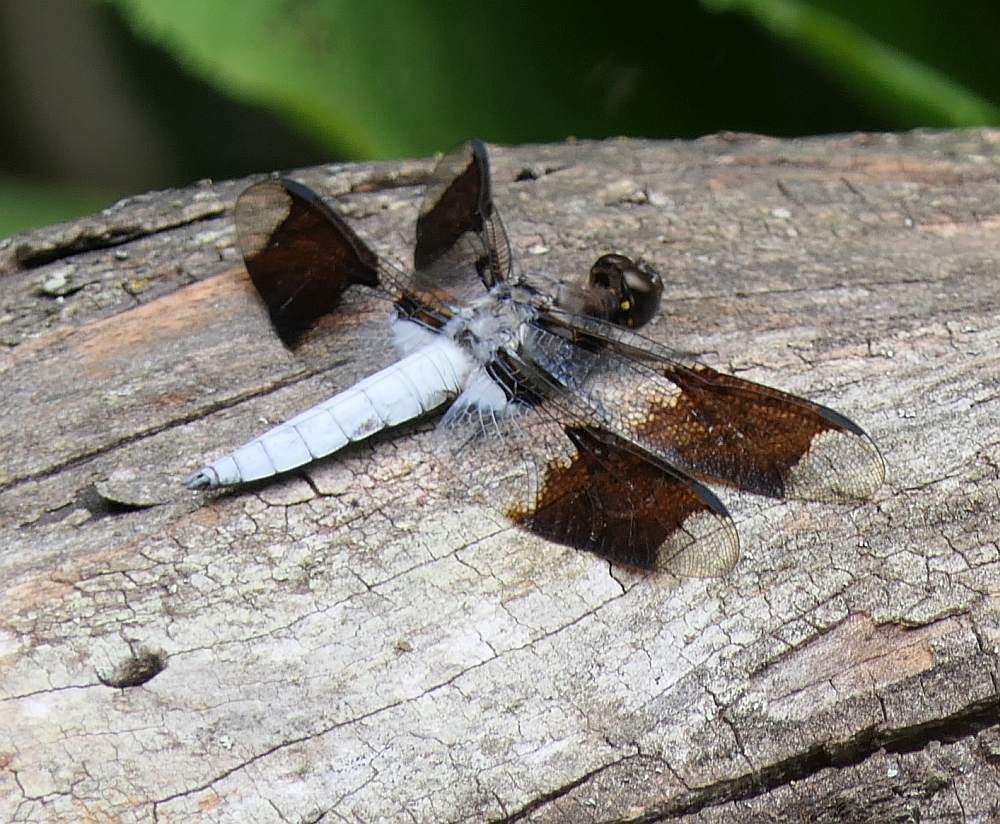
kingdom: Animalia
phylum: Arthropoda
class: Insecta
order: Odonata
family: Libellulidae
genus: Plathemis
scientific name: Plathemis lydia
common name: Common whitetail
